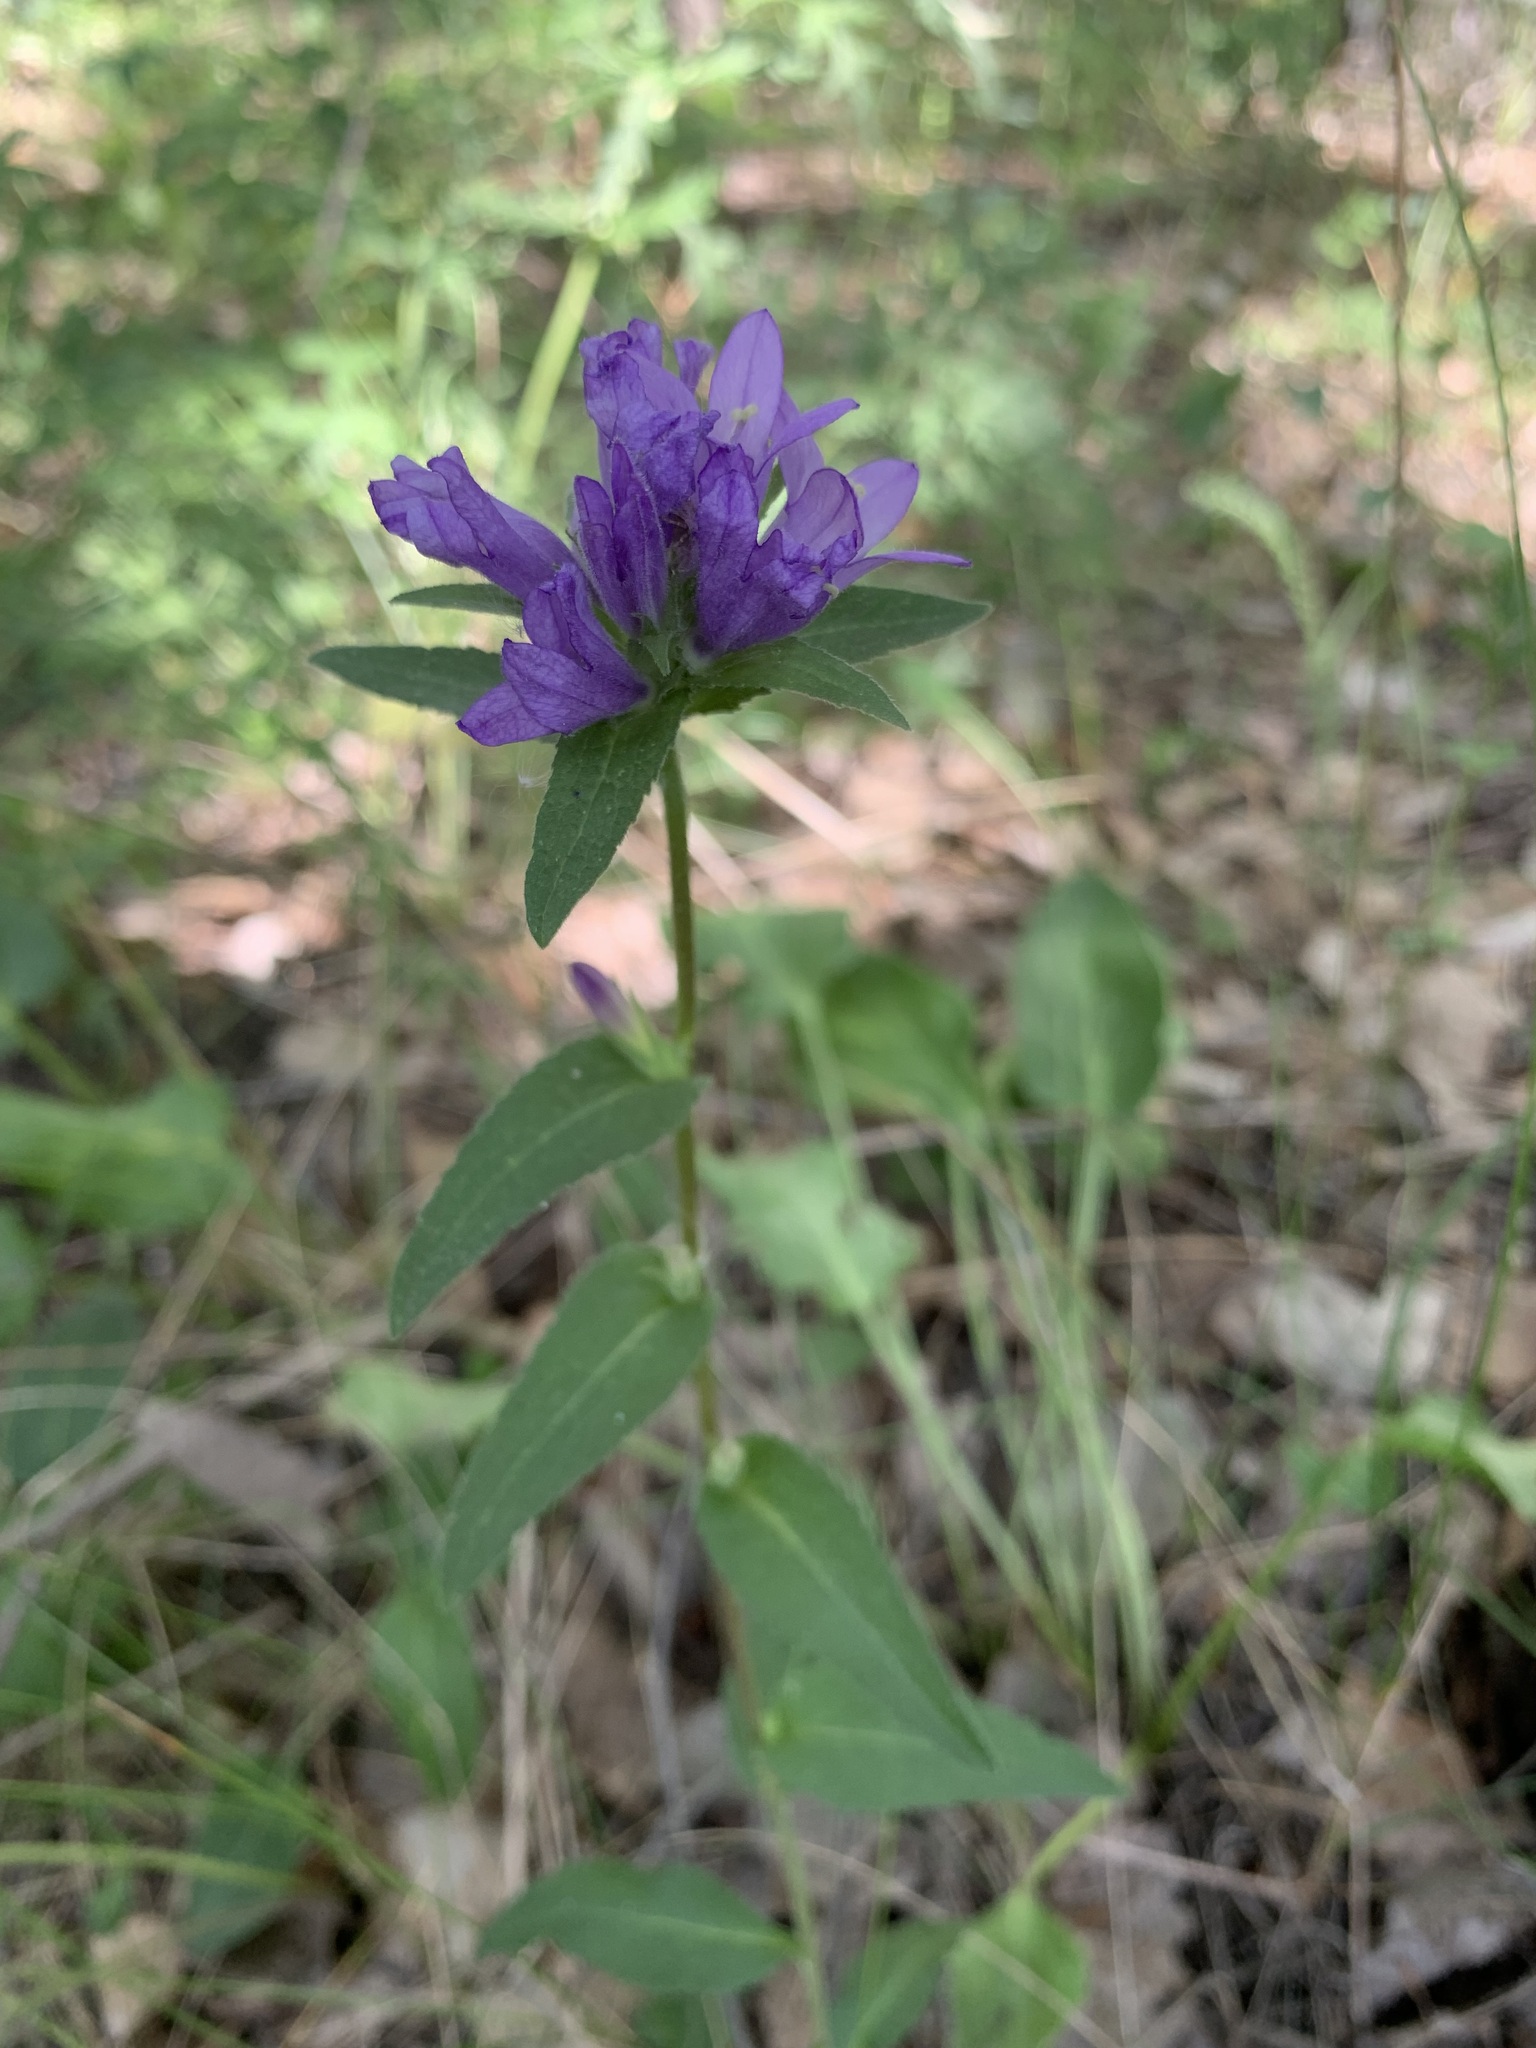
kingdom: Plantae
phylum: Tracheophyta
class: Magnoliopsida
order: Asterales
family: Campanulaceae
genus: Campanula
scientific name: Campanula glomerata
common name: Clustered bellflower
